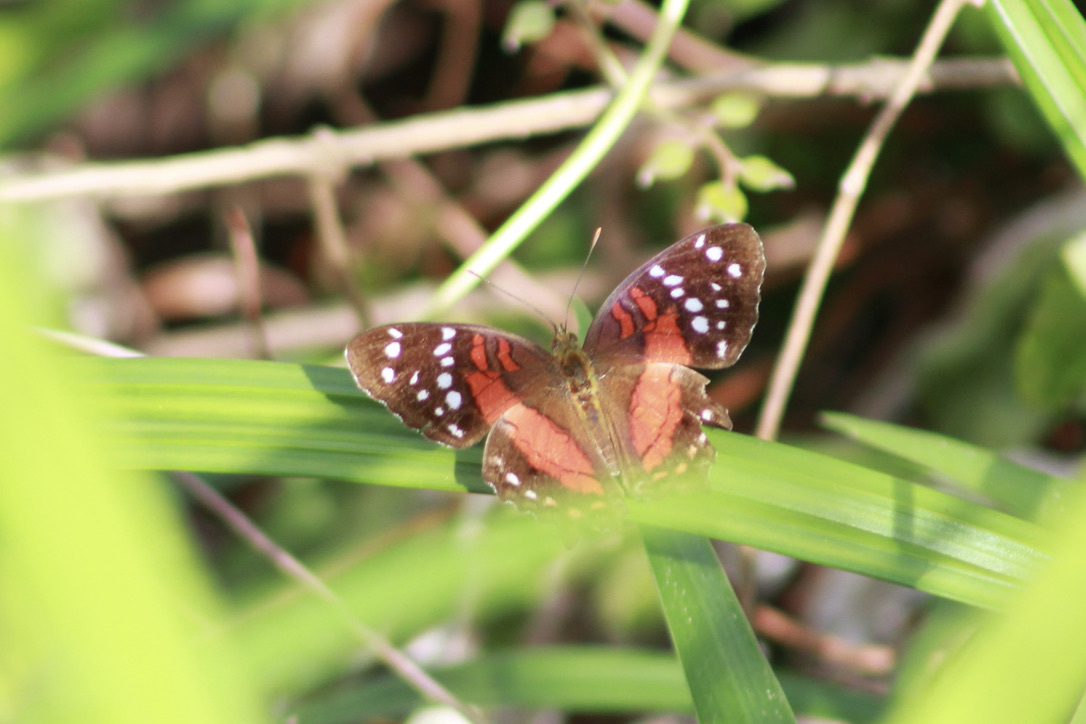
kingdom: Animalia
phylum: Arthropoda
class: Insecta
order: Lepidoptera
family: Nymphalidae
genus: Anartia
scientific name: Anartia amathea
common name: Red peacock
